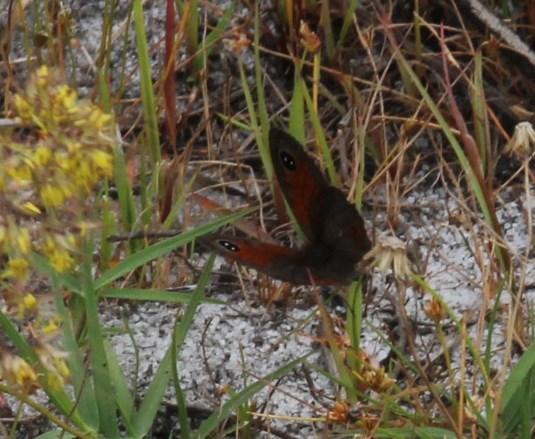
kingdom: Animalia
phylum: Arthropoda
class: Insecta
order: Lepidoptera
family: Nymphalidae
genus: Pseudonympha
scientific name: Pseudonympha magus
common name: Silver-bottom brown
